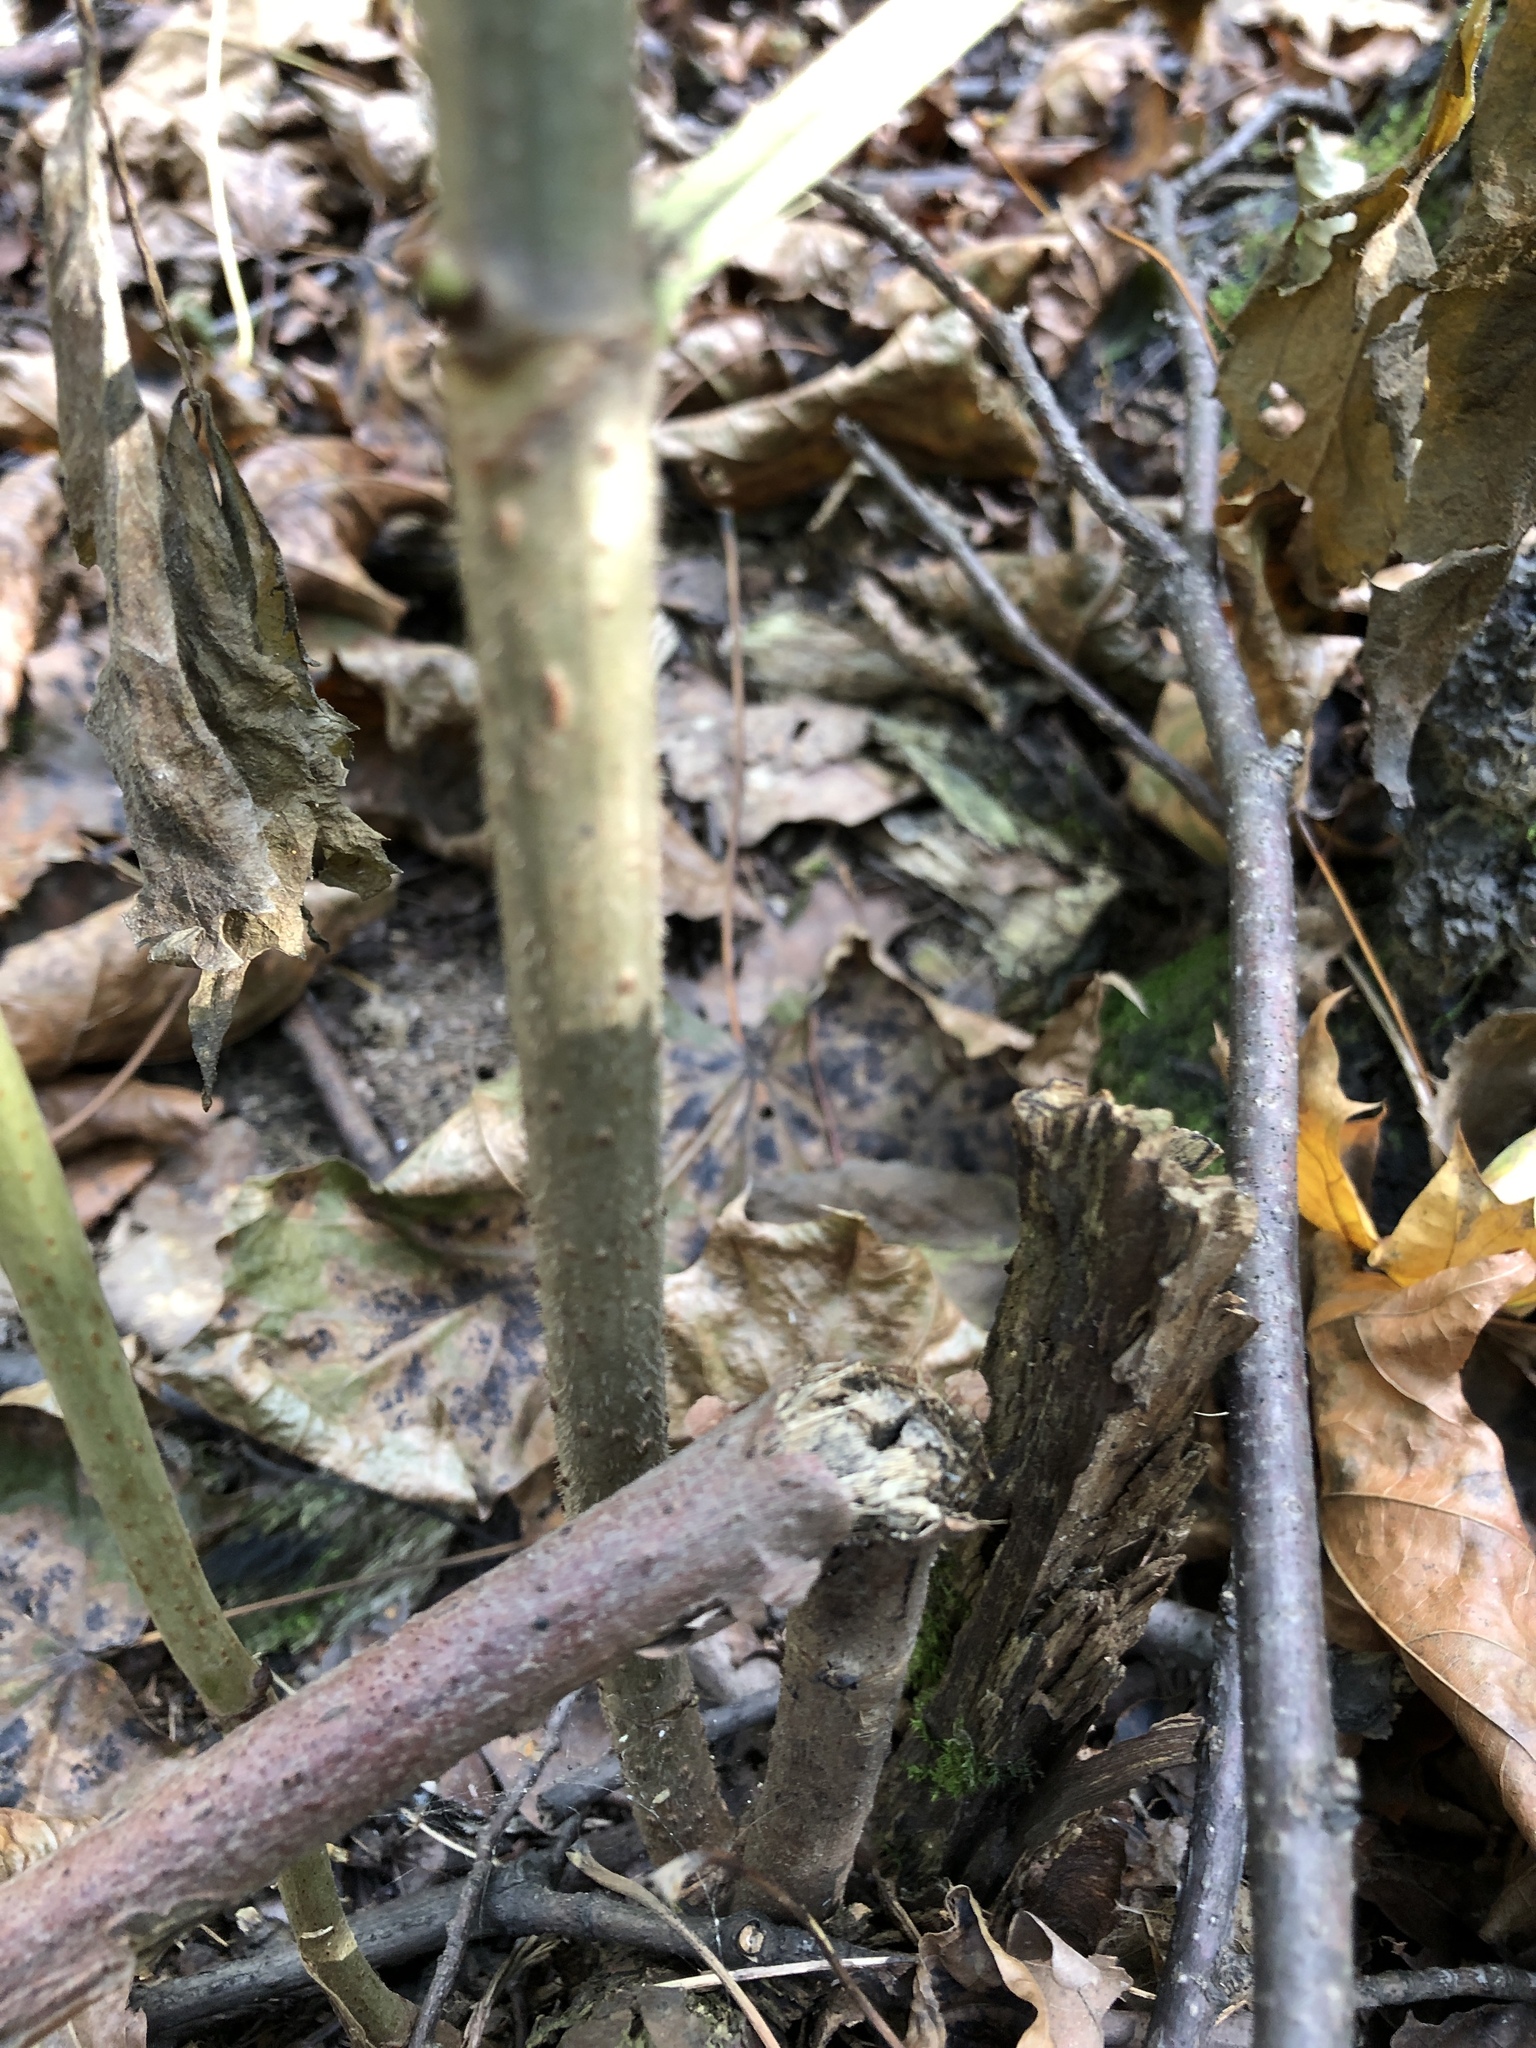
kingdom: Plantae
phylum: Tracheophyta
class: Magnoliopsida
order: Dipsacales
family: Viburnaceae
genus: Sambucus
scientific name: Sambucus racemosa
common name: Red-berried elder
